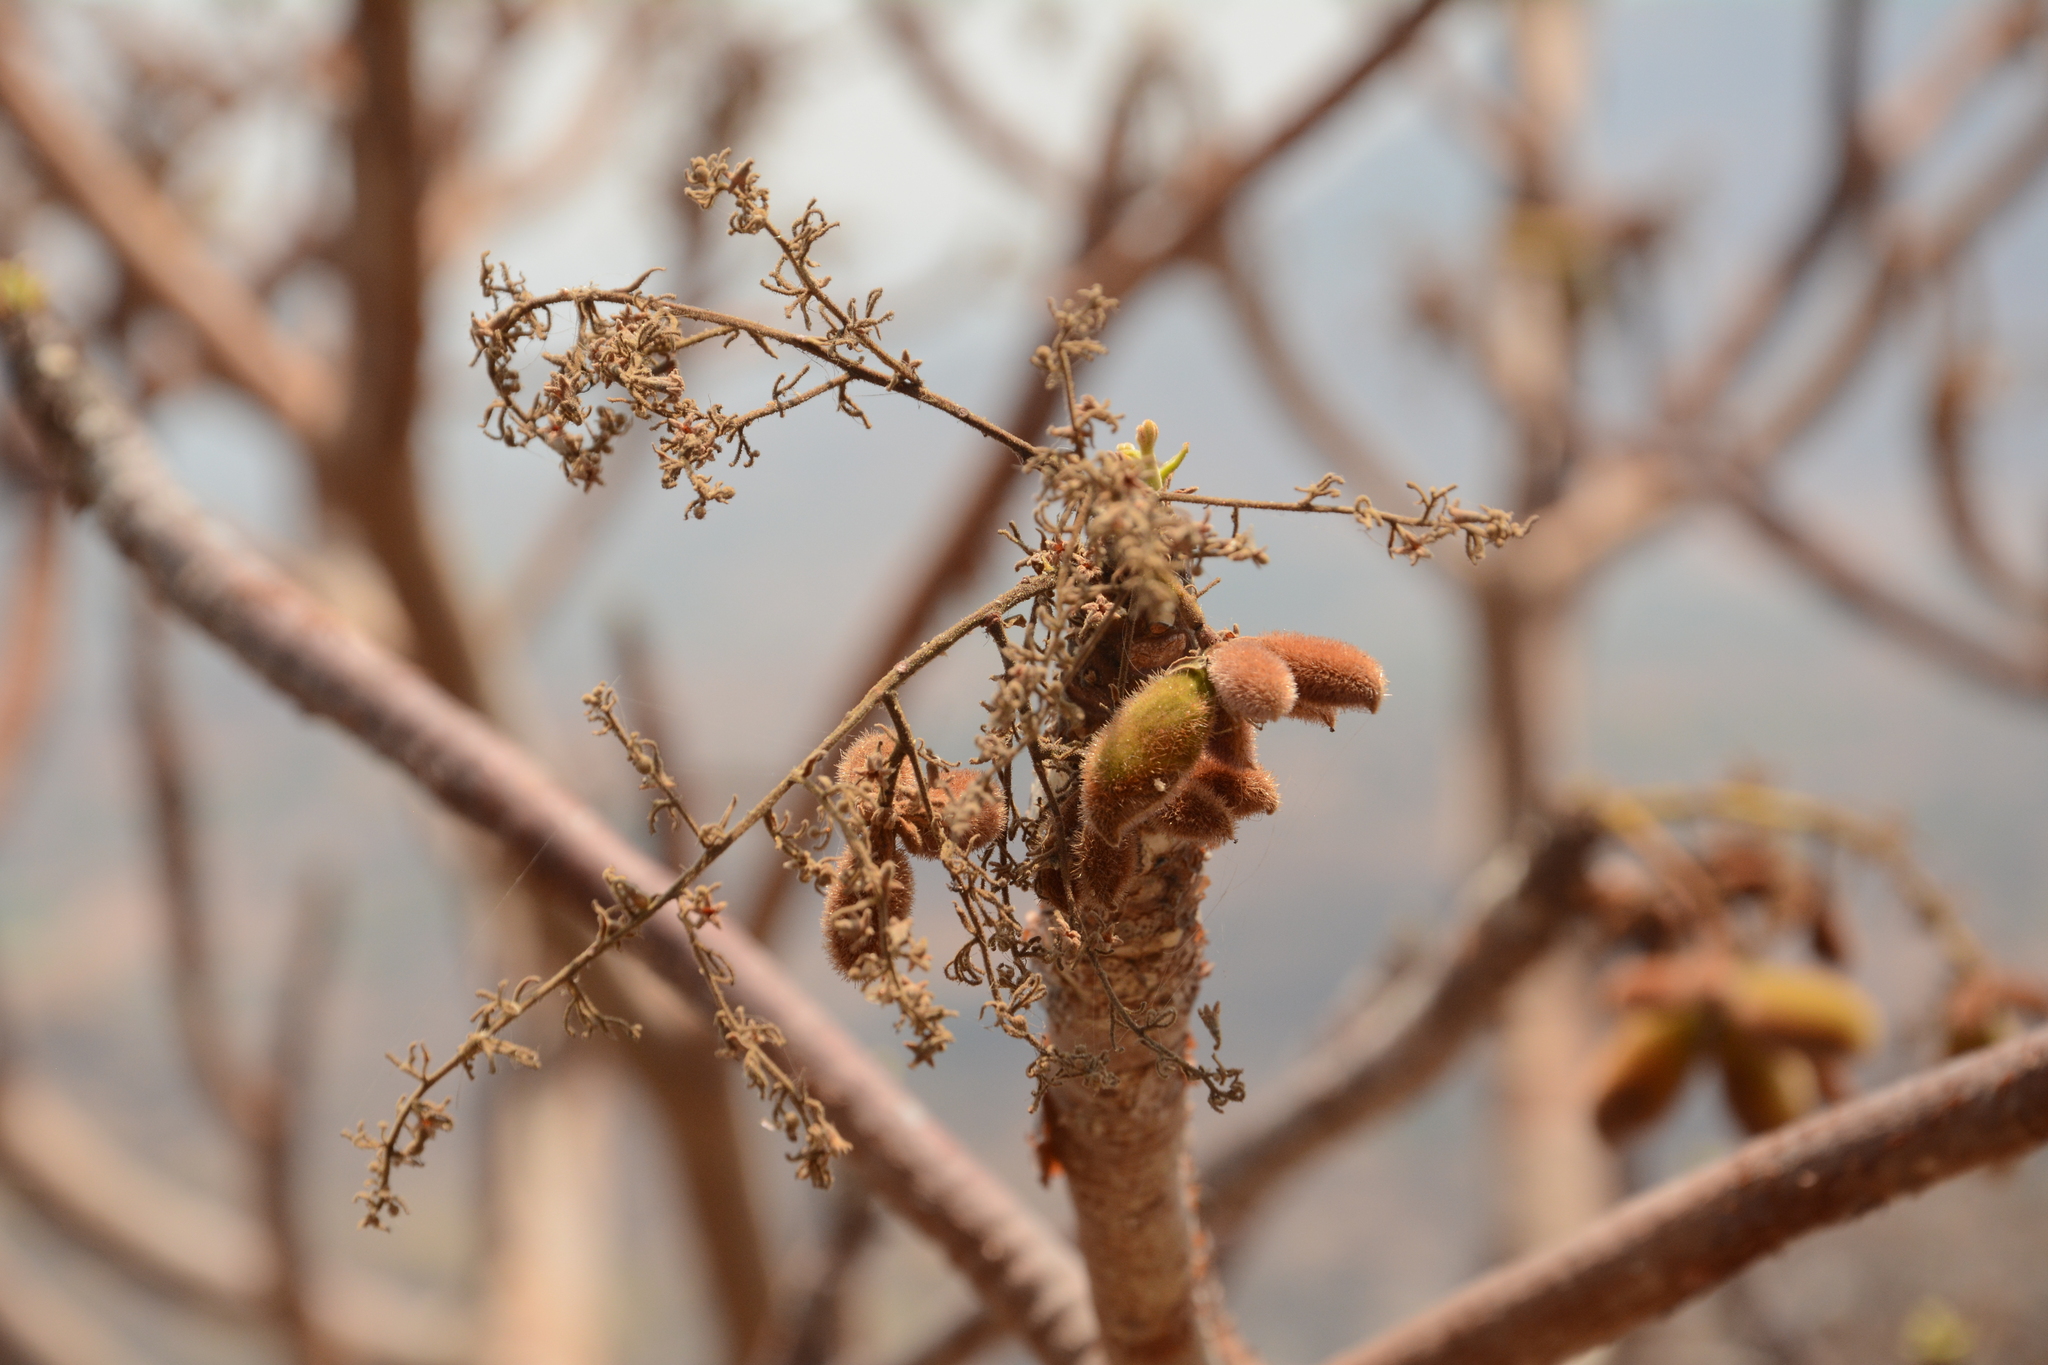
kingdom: Plantae
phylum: Tracheophyta
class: Magnoliopsida
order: Malvales
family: Malvaceae
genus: Sterculia
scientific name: Sterculia urens
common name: Indian-tragacanth
